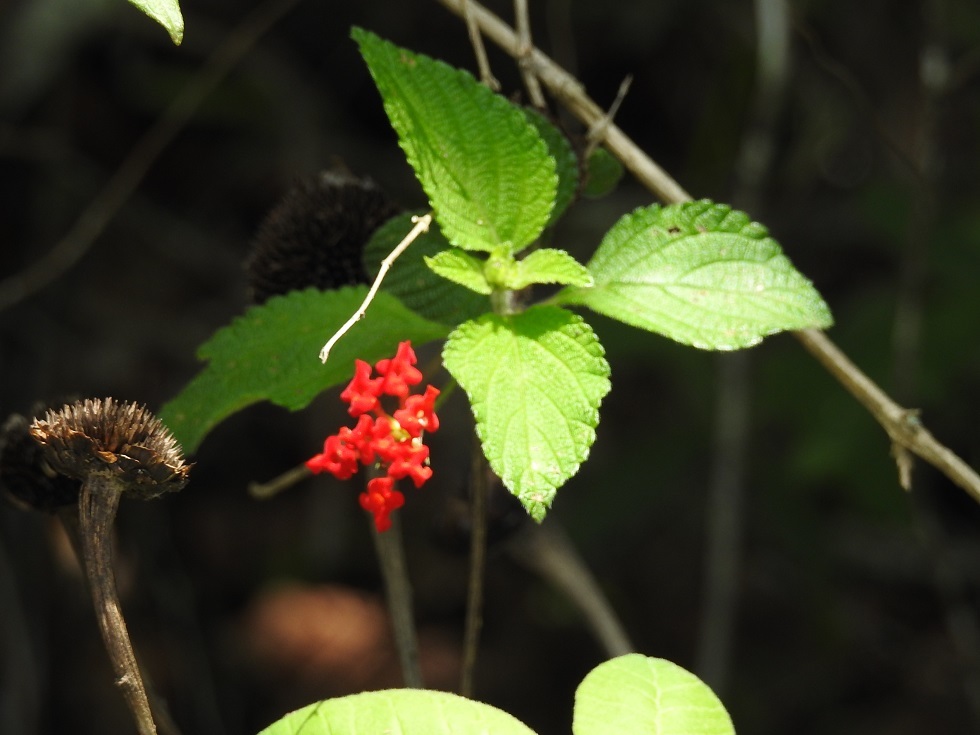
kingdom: Plantae
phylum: Tracheophyta
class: Magnoliopsida
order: Lamiales
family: Verbenaceae
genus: Lantana
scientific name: Lantana camara
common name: Lantana
